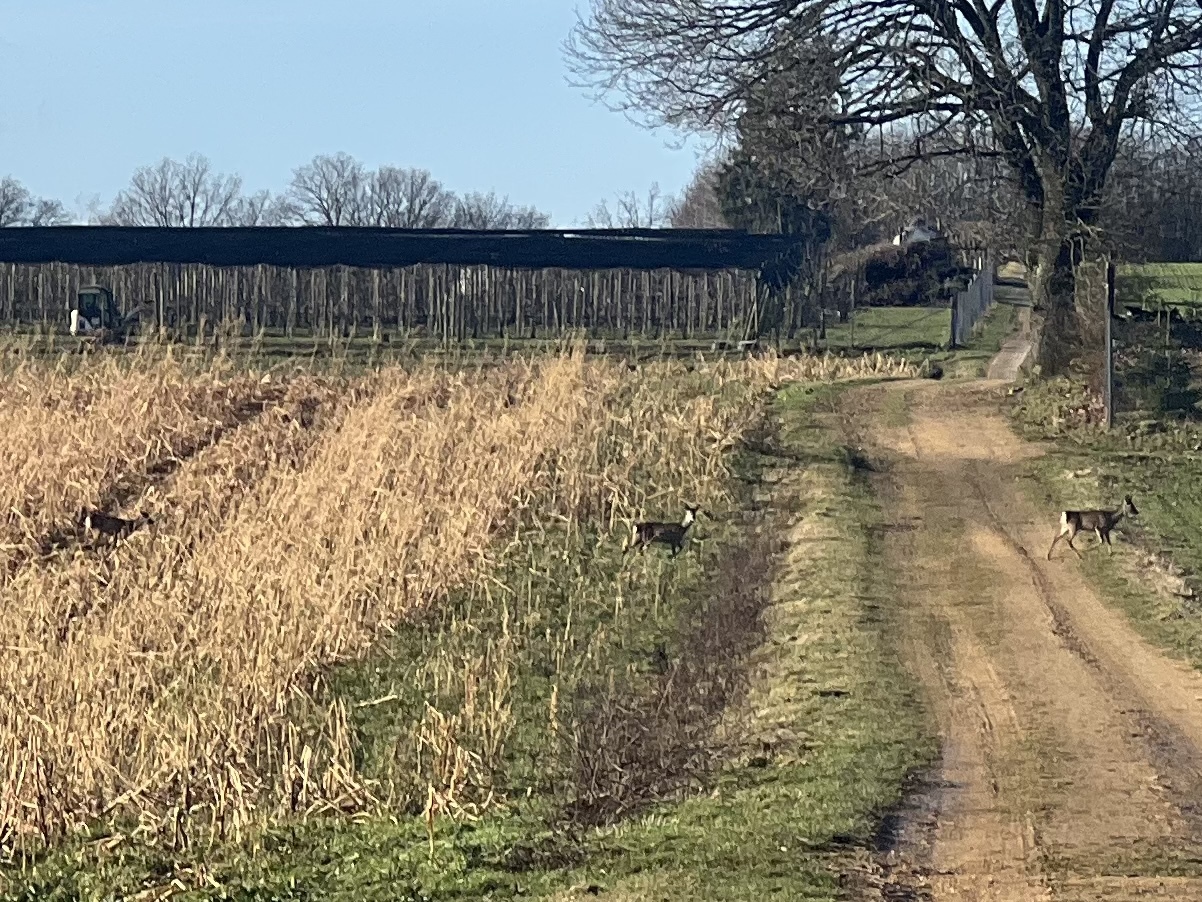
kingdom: Animalia
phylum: Chordata
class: Mammalia
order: Artiodactyla
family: Cervidae
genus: Capreolus
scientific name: Capreolus capreolus
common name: Western roe deer
